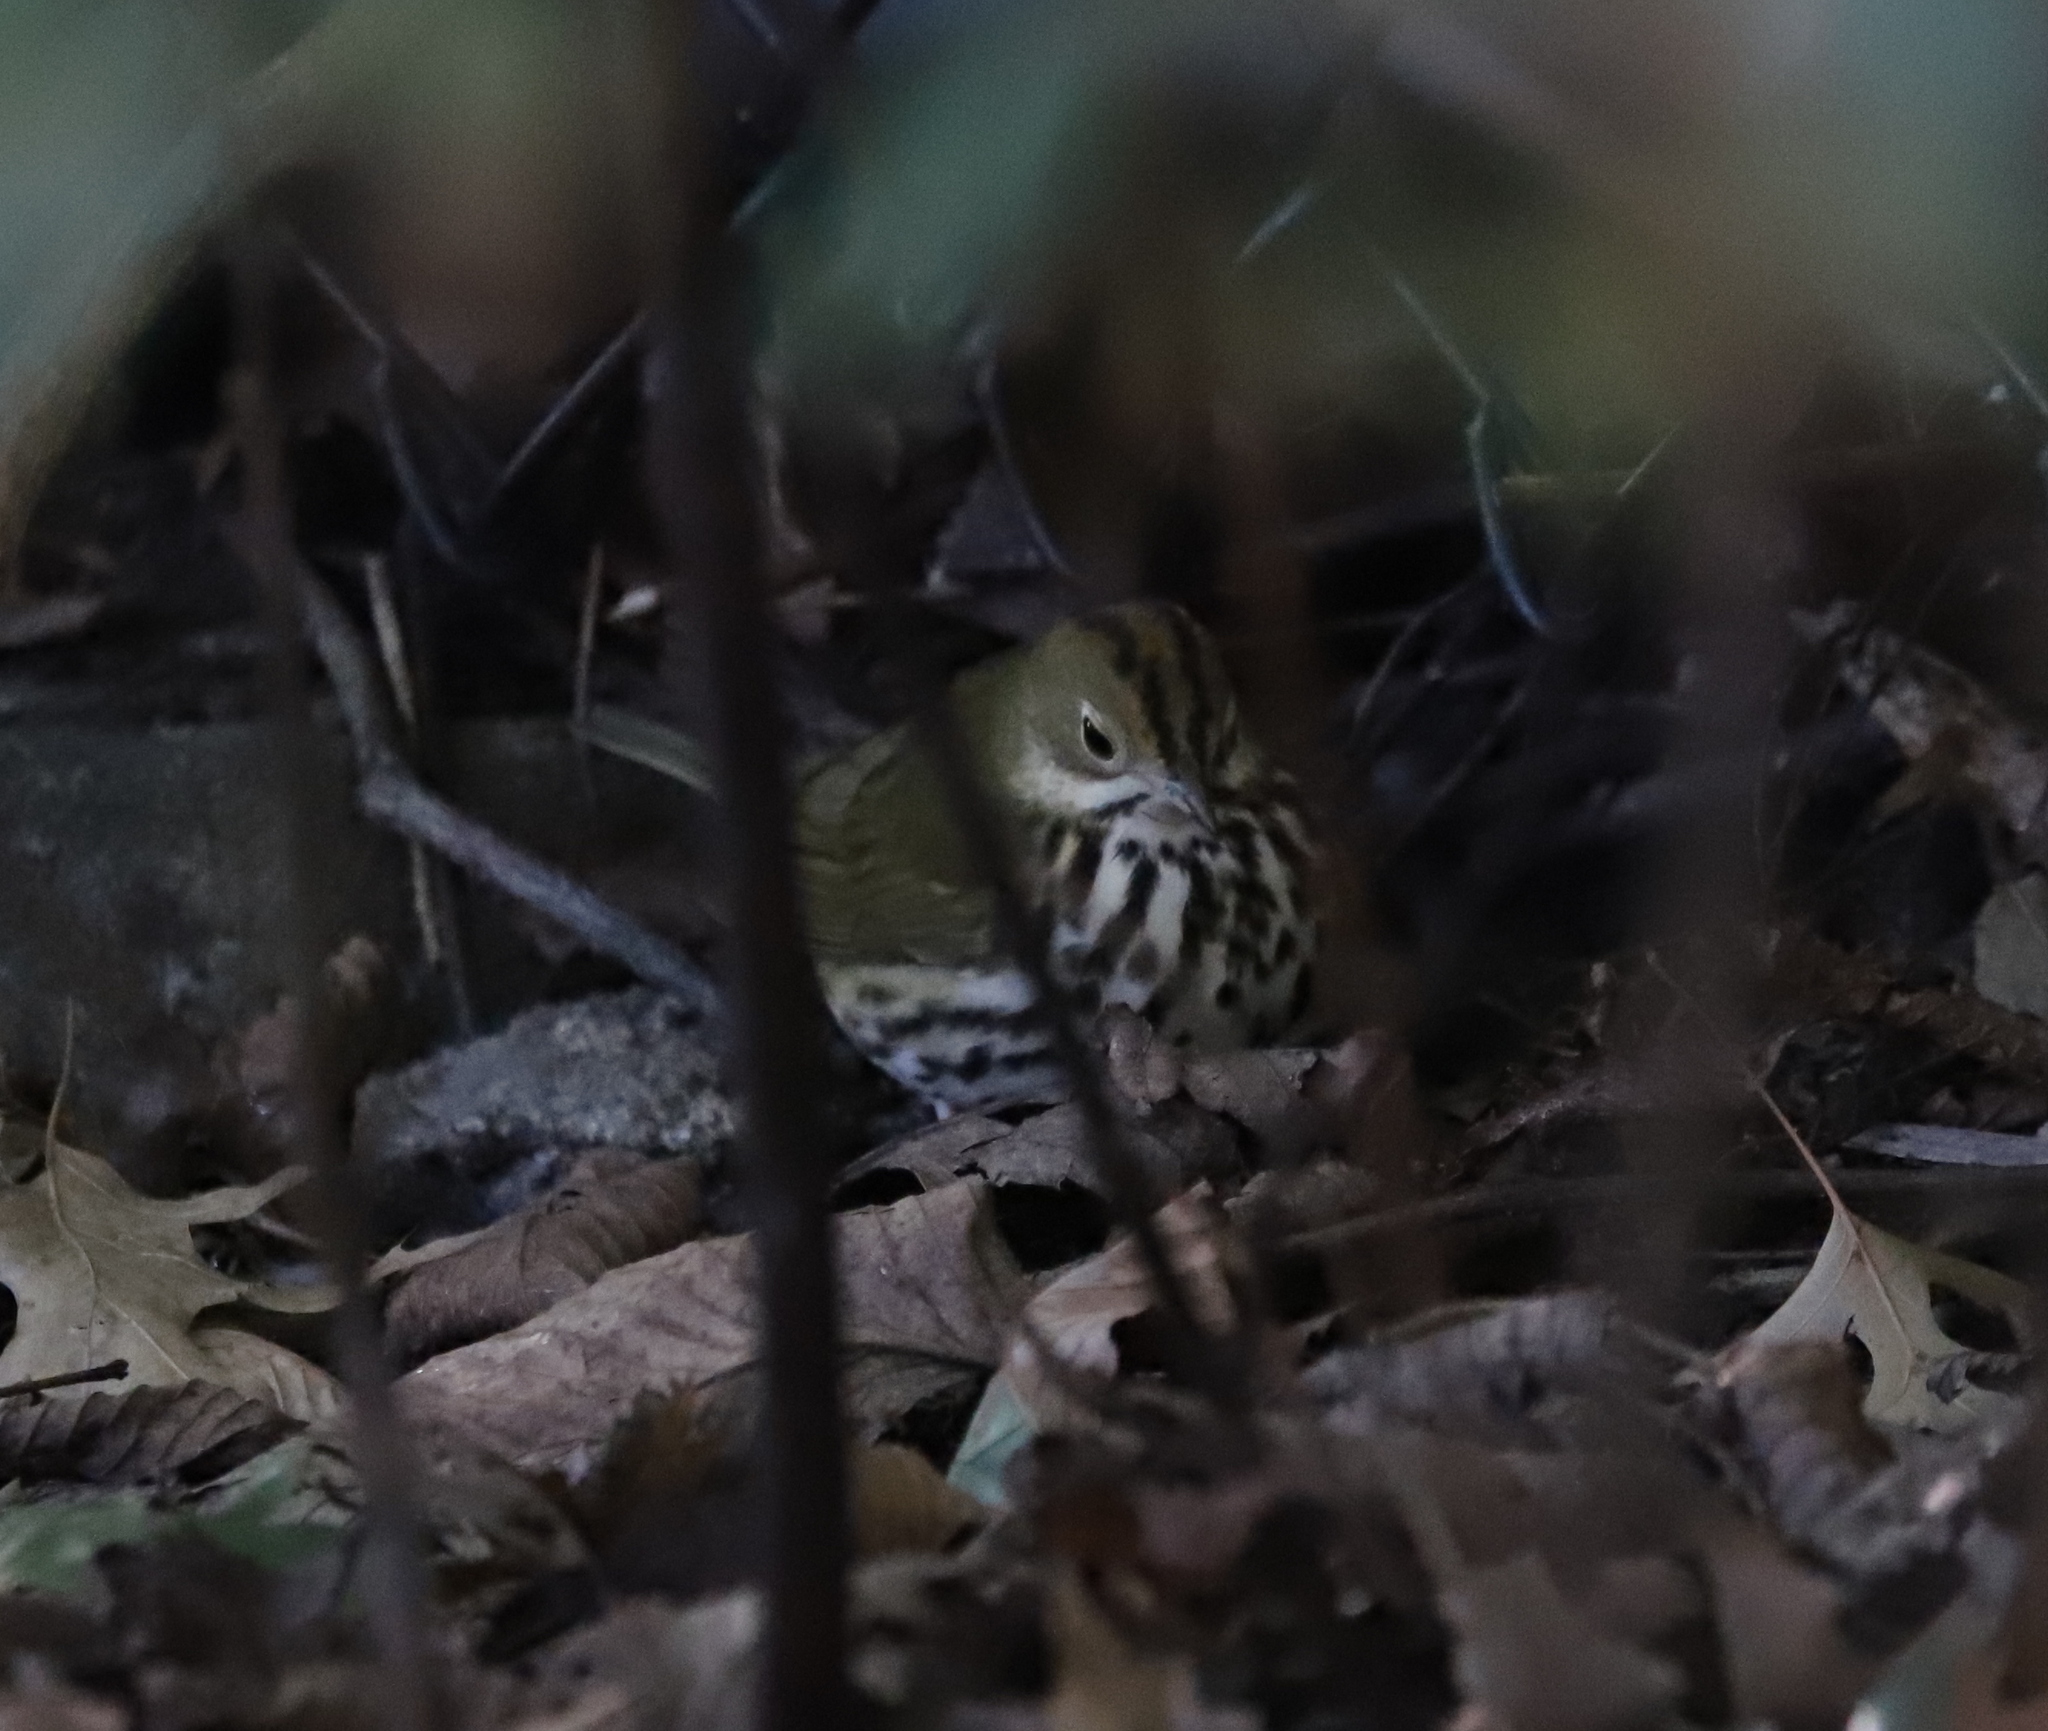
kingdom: Animalia
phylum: Chordata
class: Aves
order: Passeriformes
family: Parulidae
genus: Seiurus
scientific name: Seiurus aurocapilla
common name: Ovenbird
